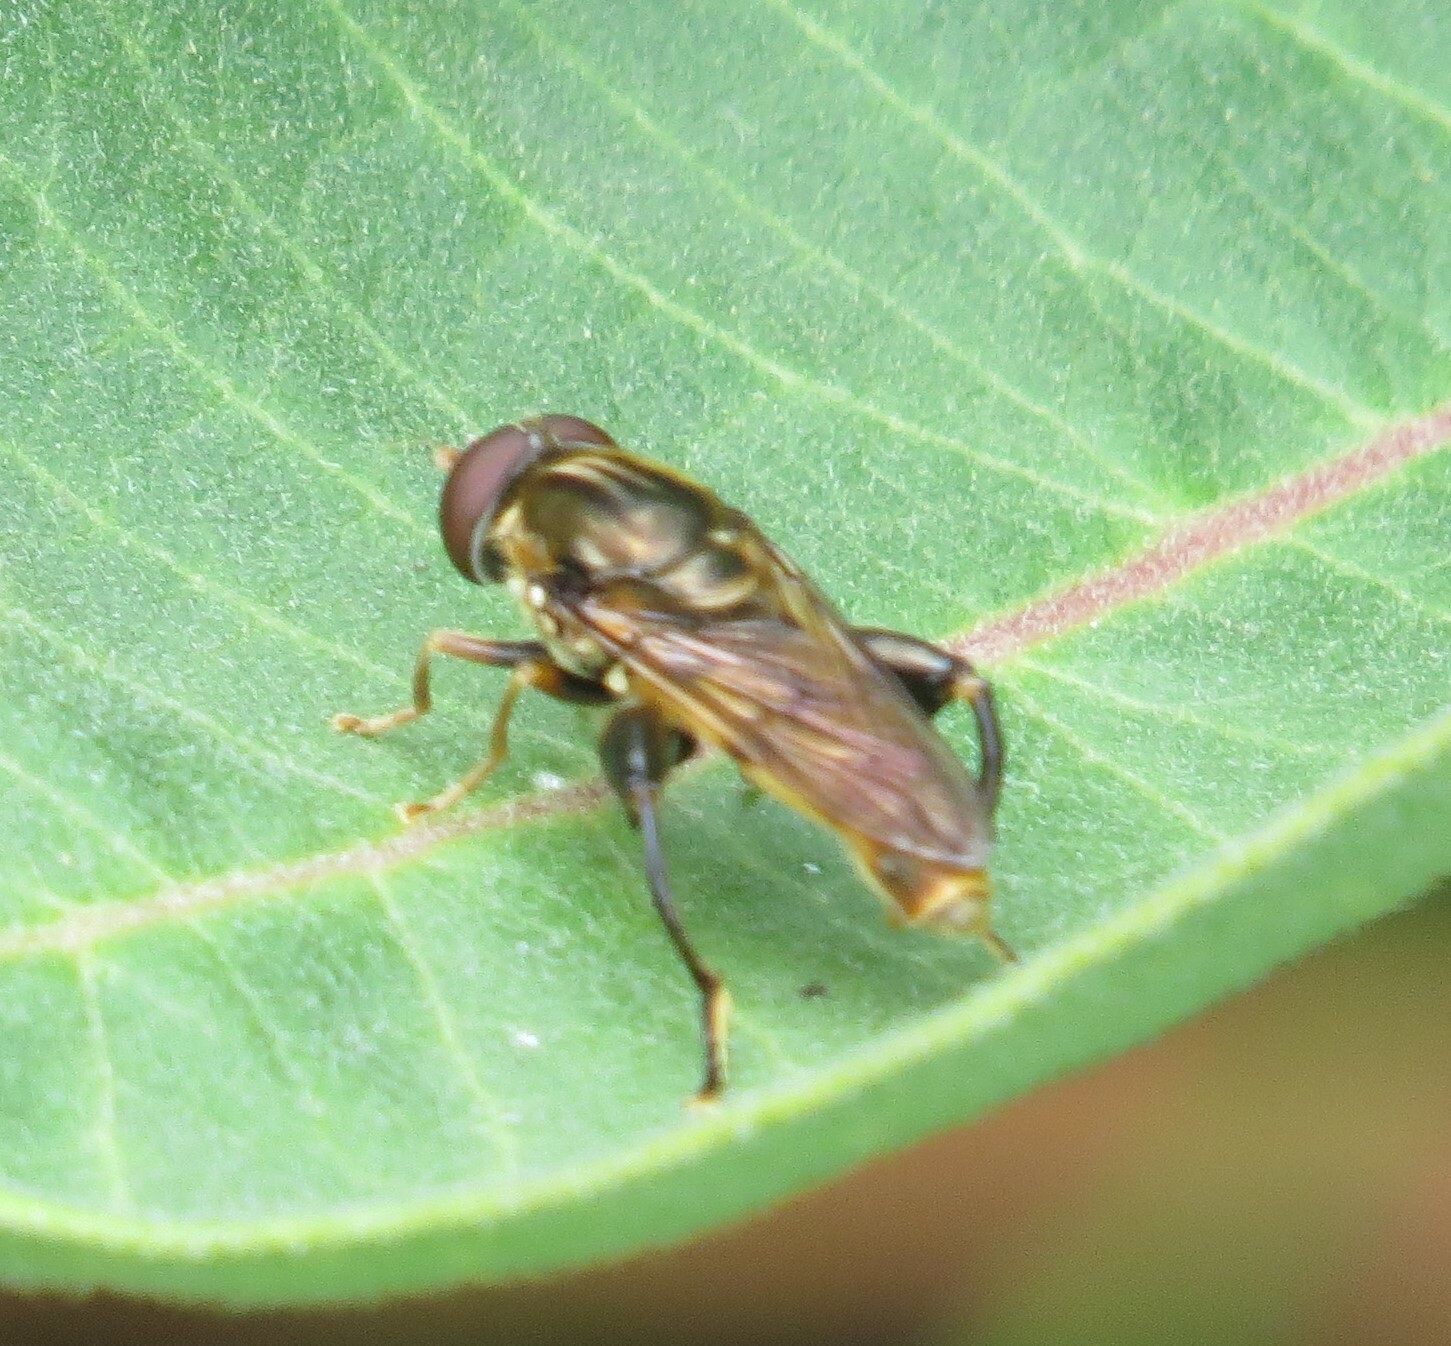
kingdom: Animalia
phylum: Arthropoda
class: Insecta
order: Diptera
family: Syrphidae
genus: Tropidia
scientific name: Tropidia quadrata
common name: Common thick-legged fly
